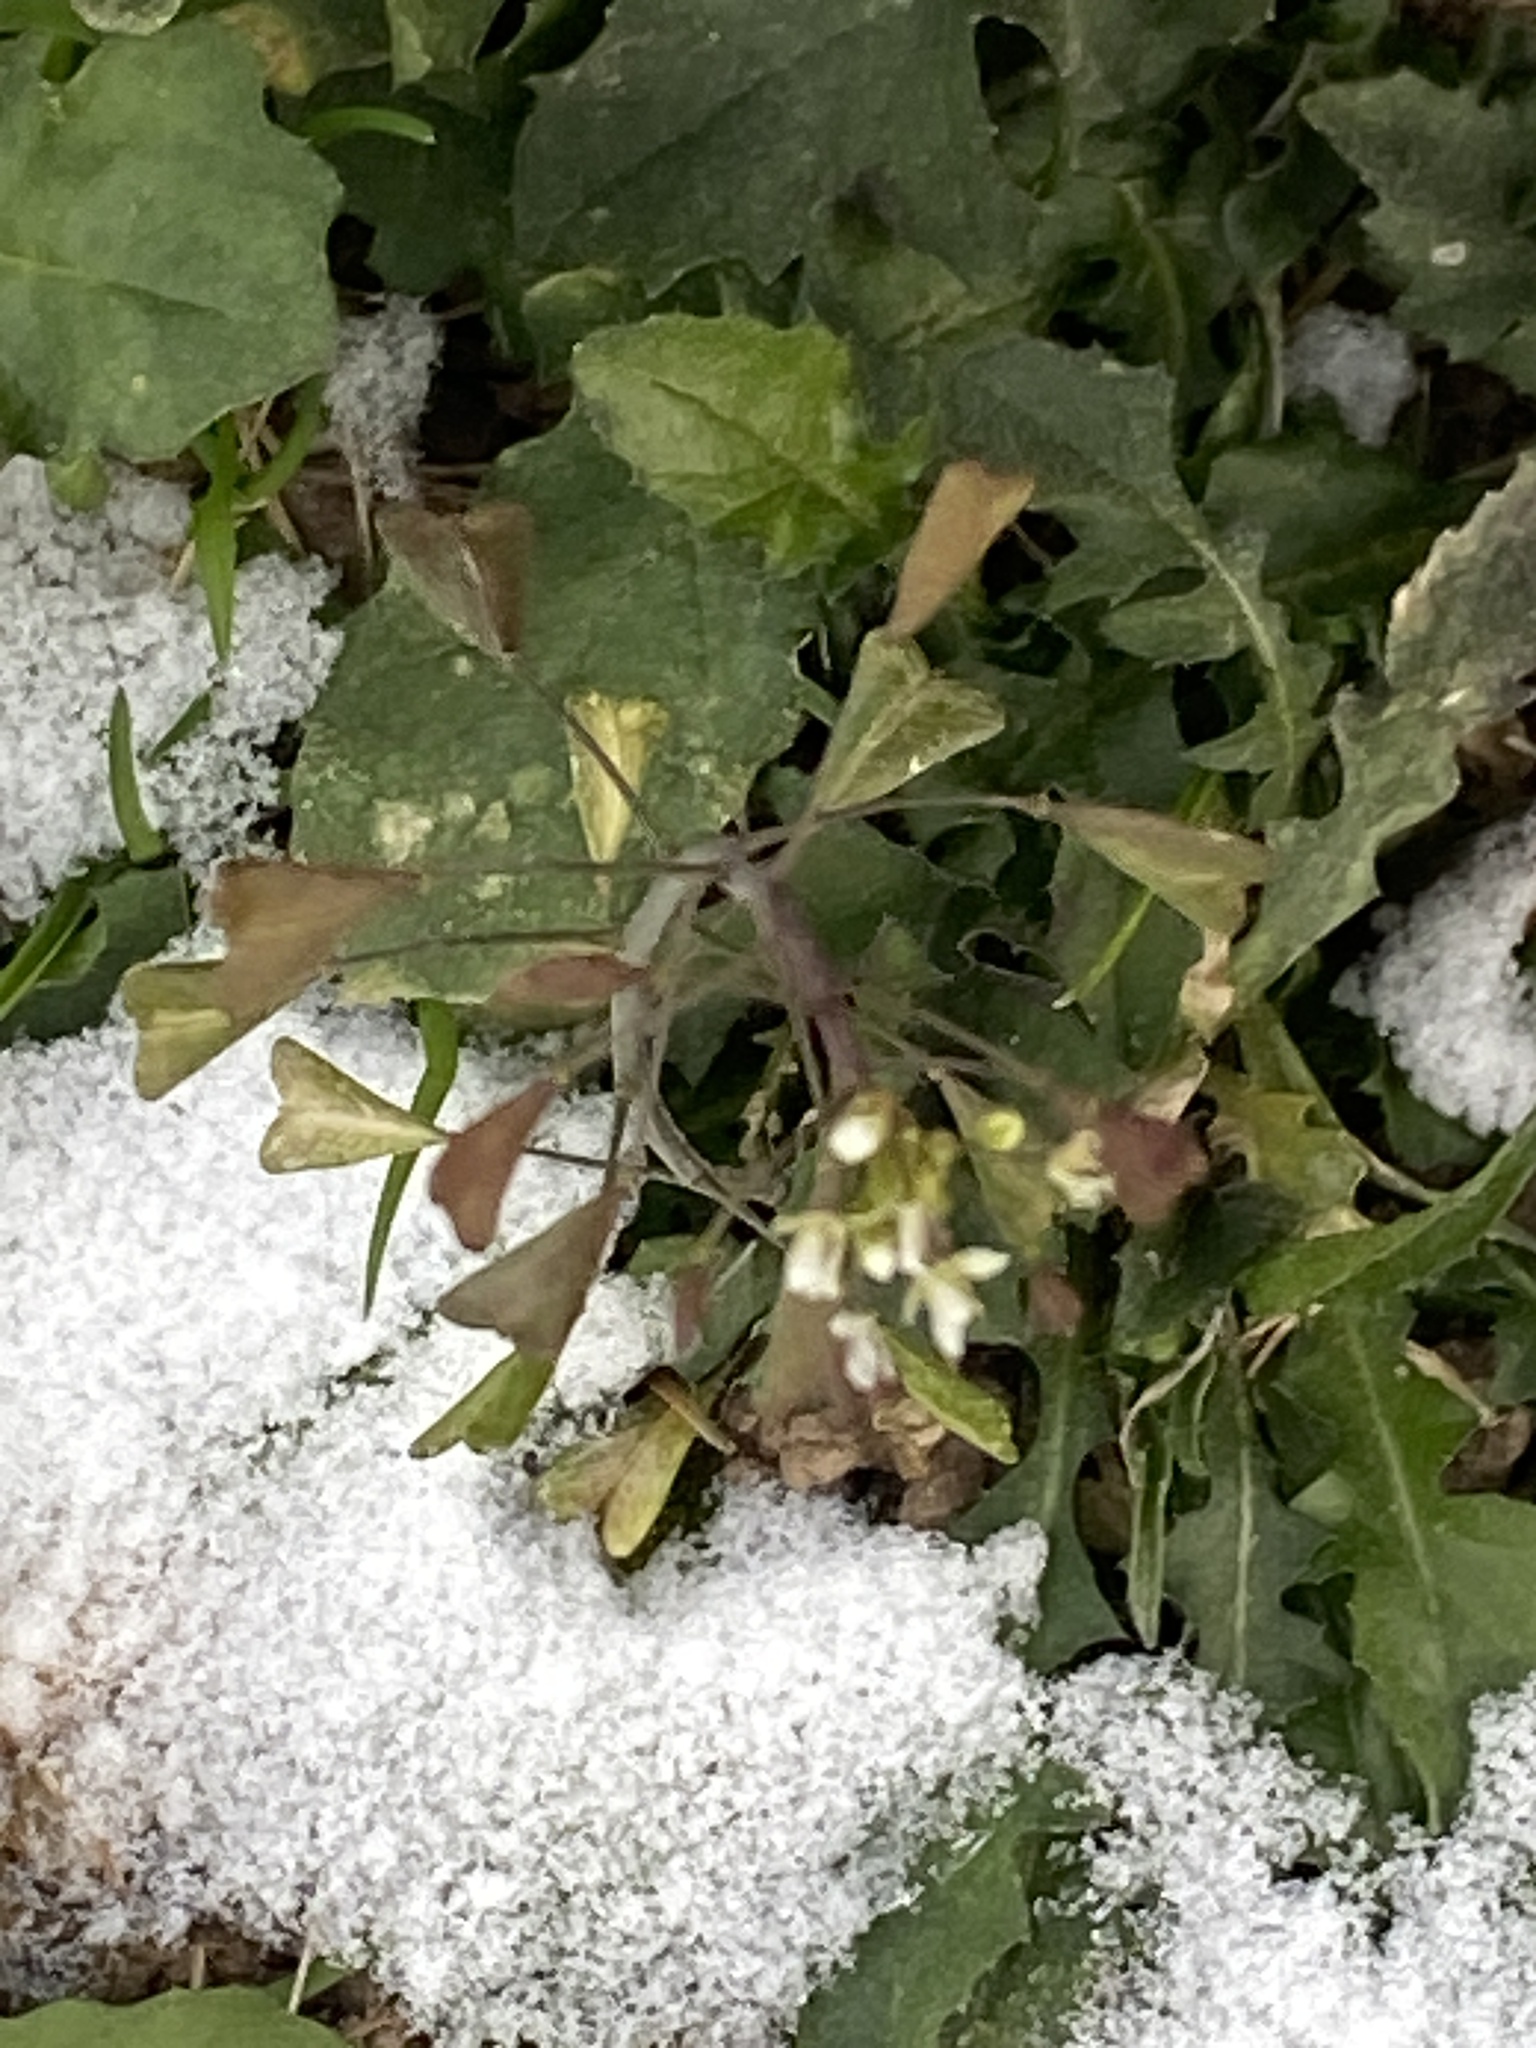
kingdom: Plantae
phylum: Tracheophyta
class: Magnoliopsida
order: Brassicales
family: Brassicaceae
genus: Capsella
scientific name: Capsella bursa-pastoris
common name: Shepherd's purse
